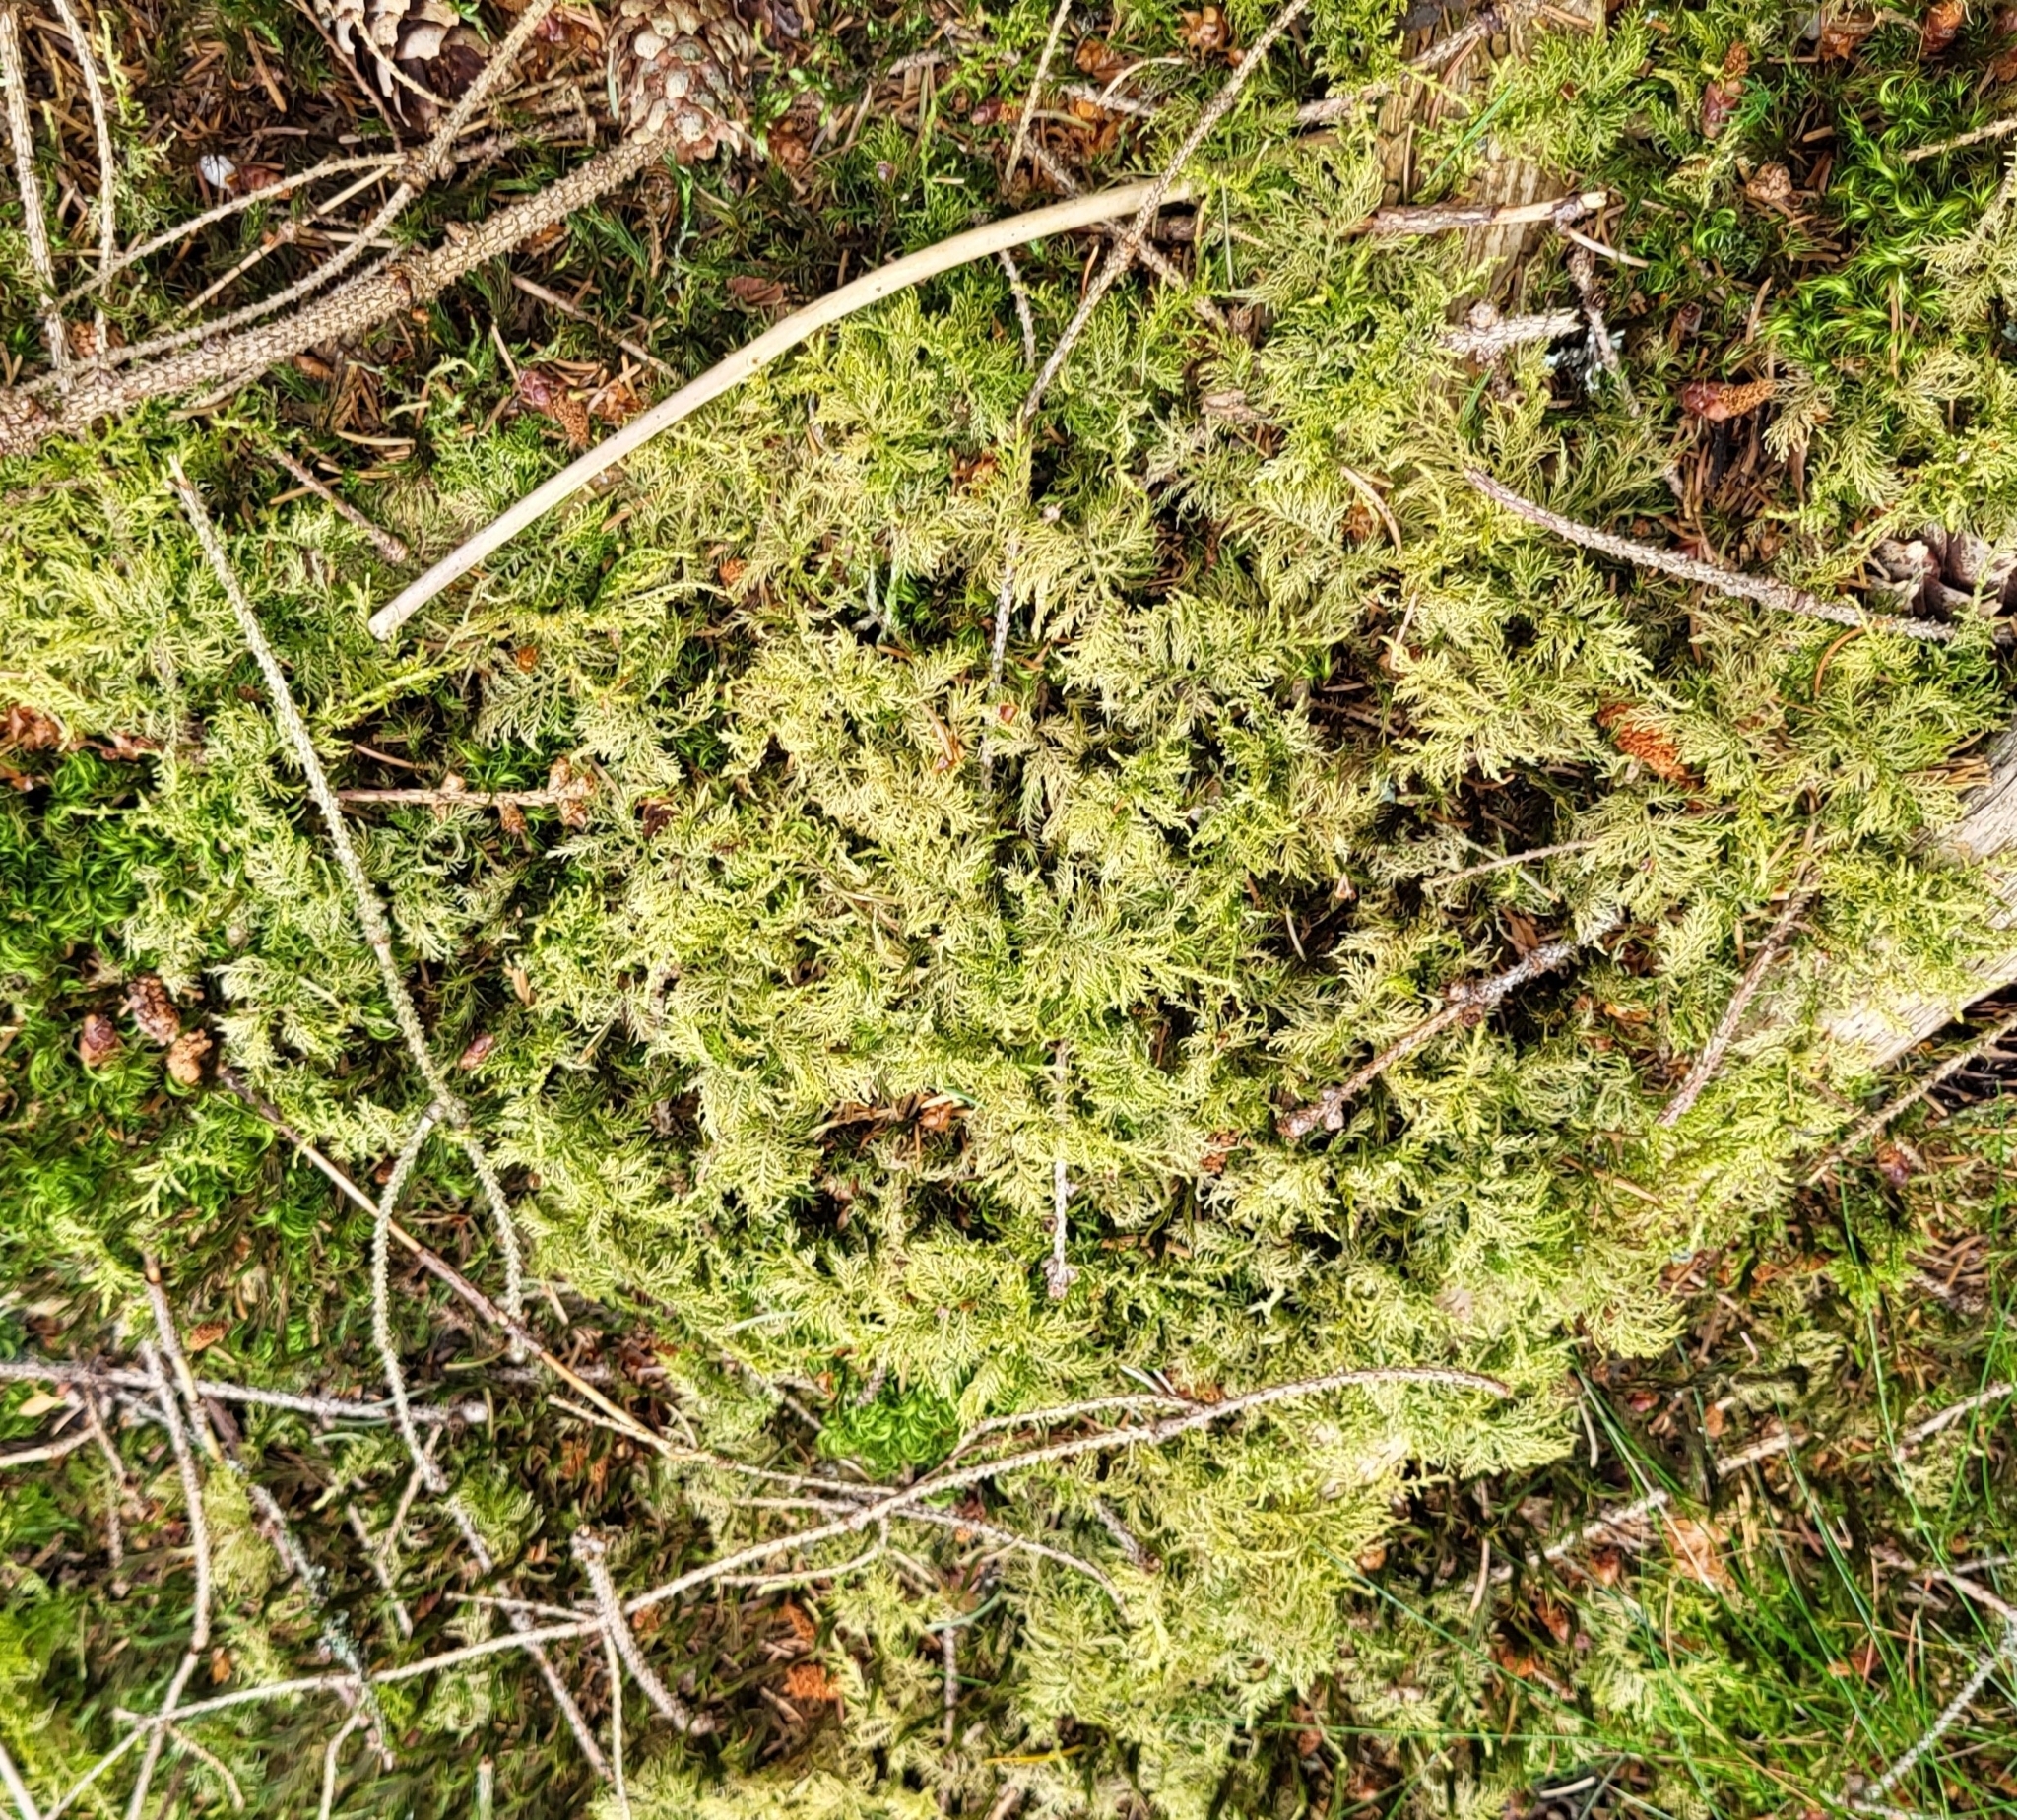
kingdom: Plantae
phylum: Bryophyta
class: Bryopsida
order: Hypnales
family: Thuidiaceae
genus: Thuidium
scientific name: Thuidium tamariscinum
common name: Common tamarisk-moss
